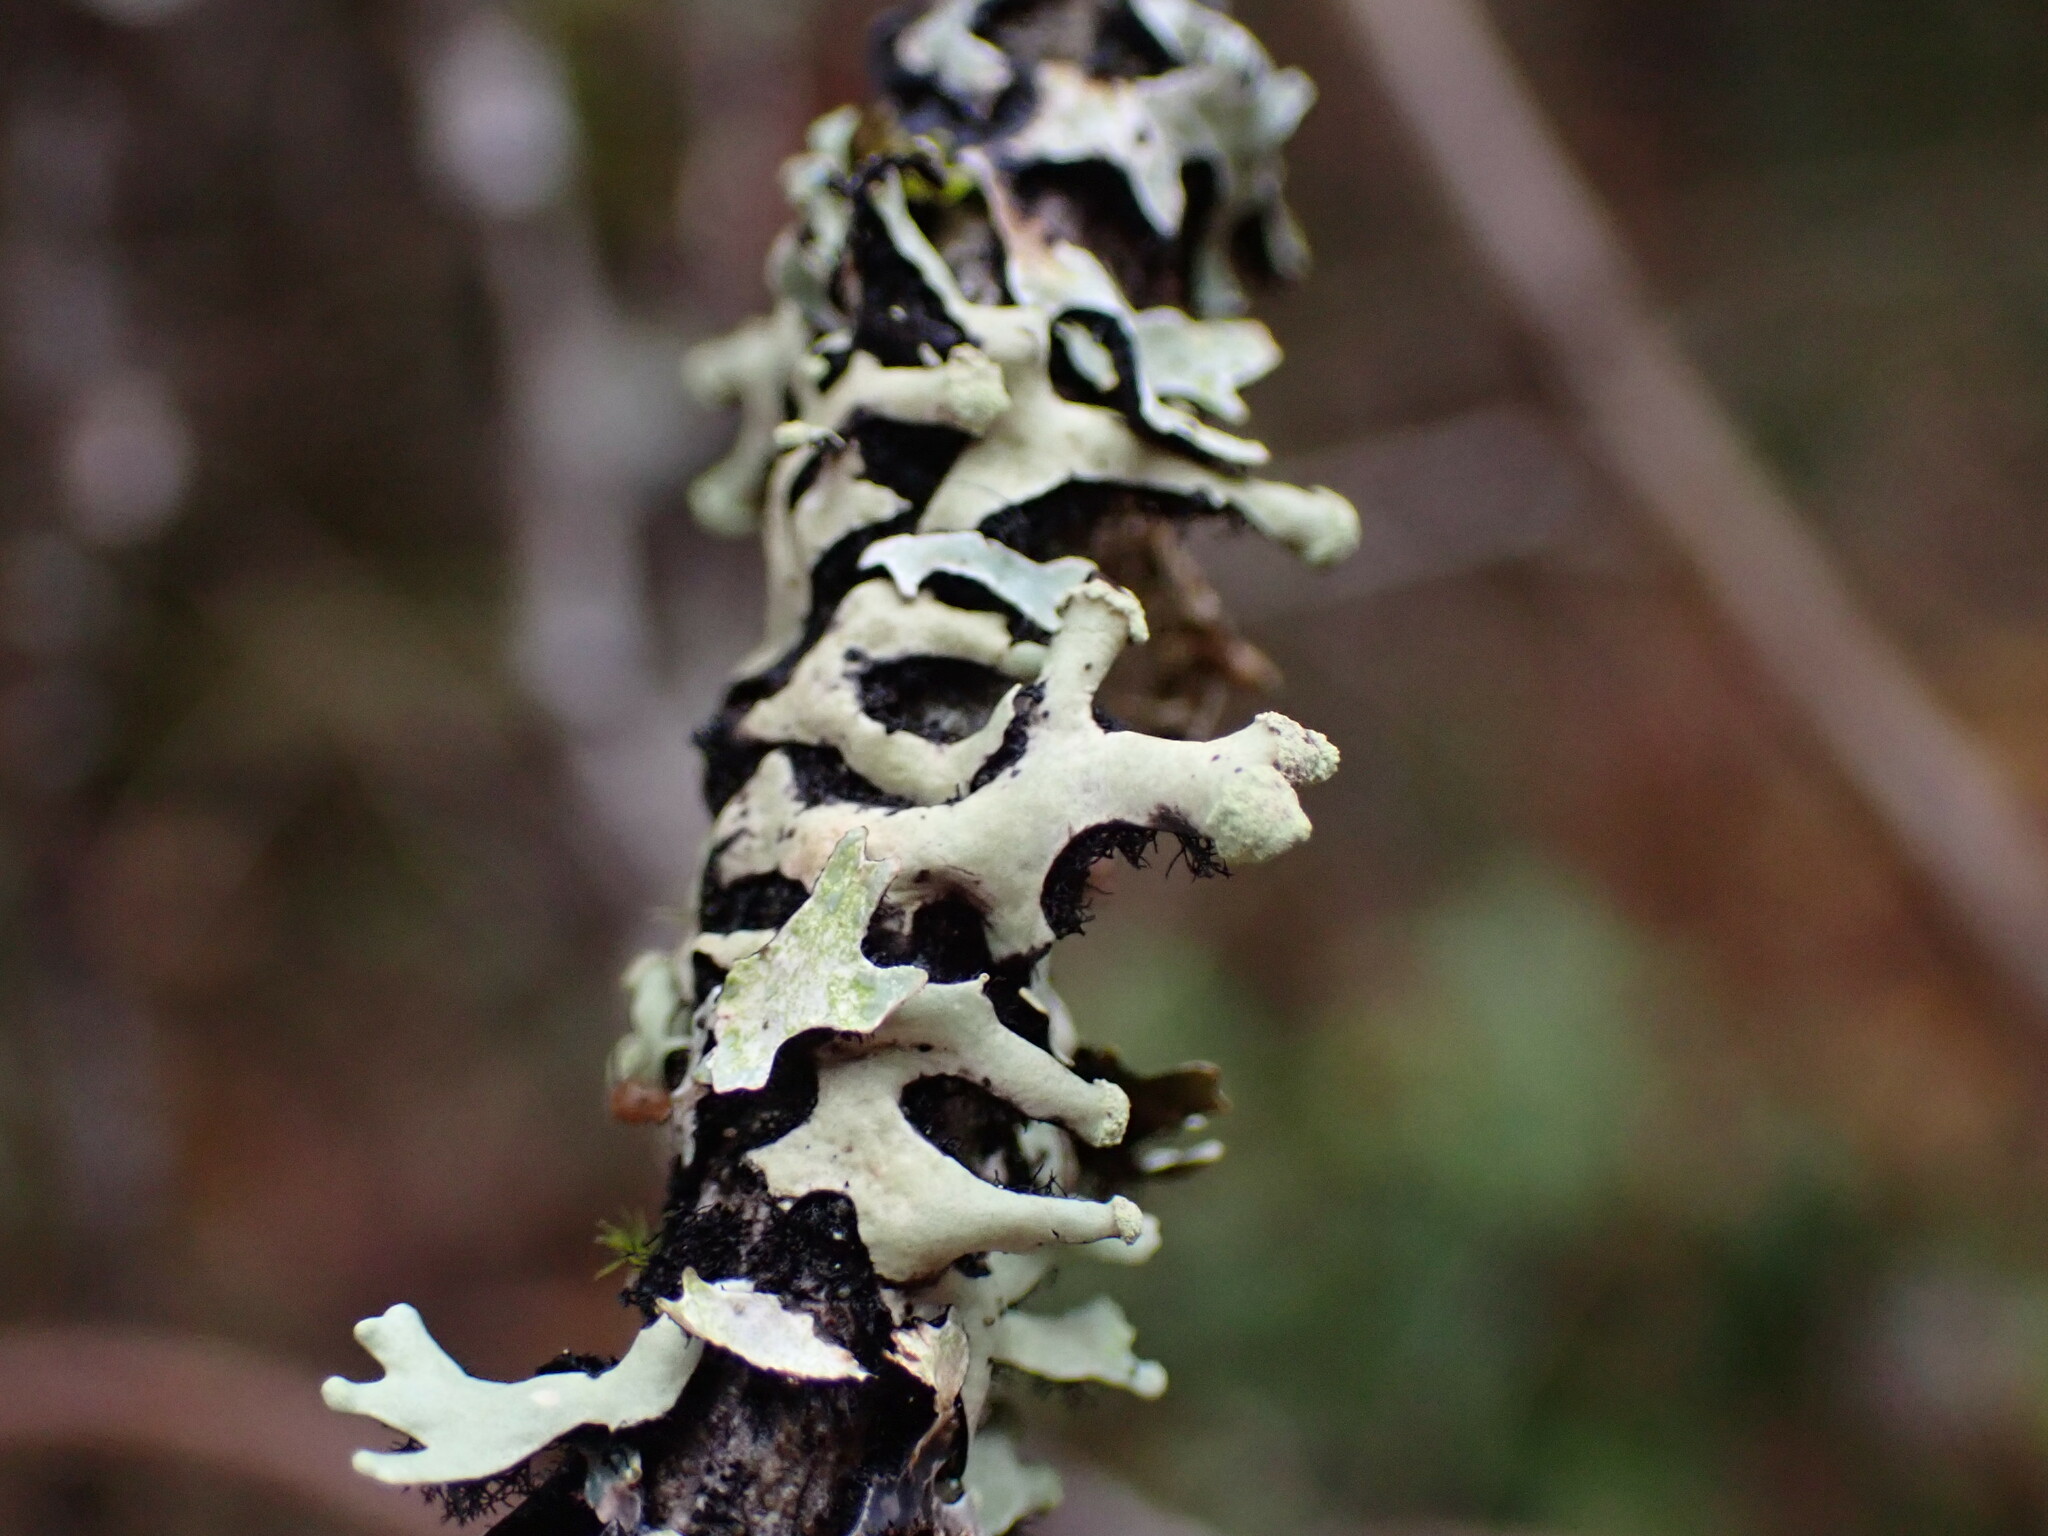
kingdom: Fungi
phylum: Ascomycota
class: Lecanoromycetes
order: Lecanorales
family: Parmeliaceae
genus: Hypotrachyna
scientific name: Hypotrachyna sinuosa
